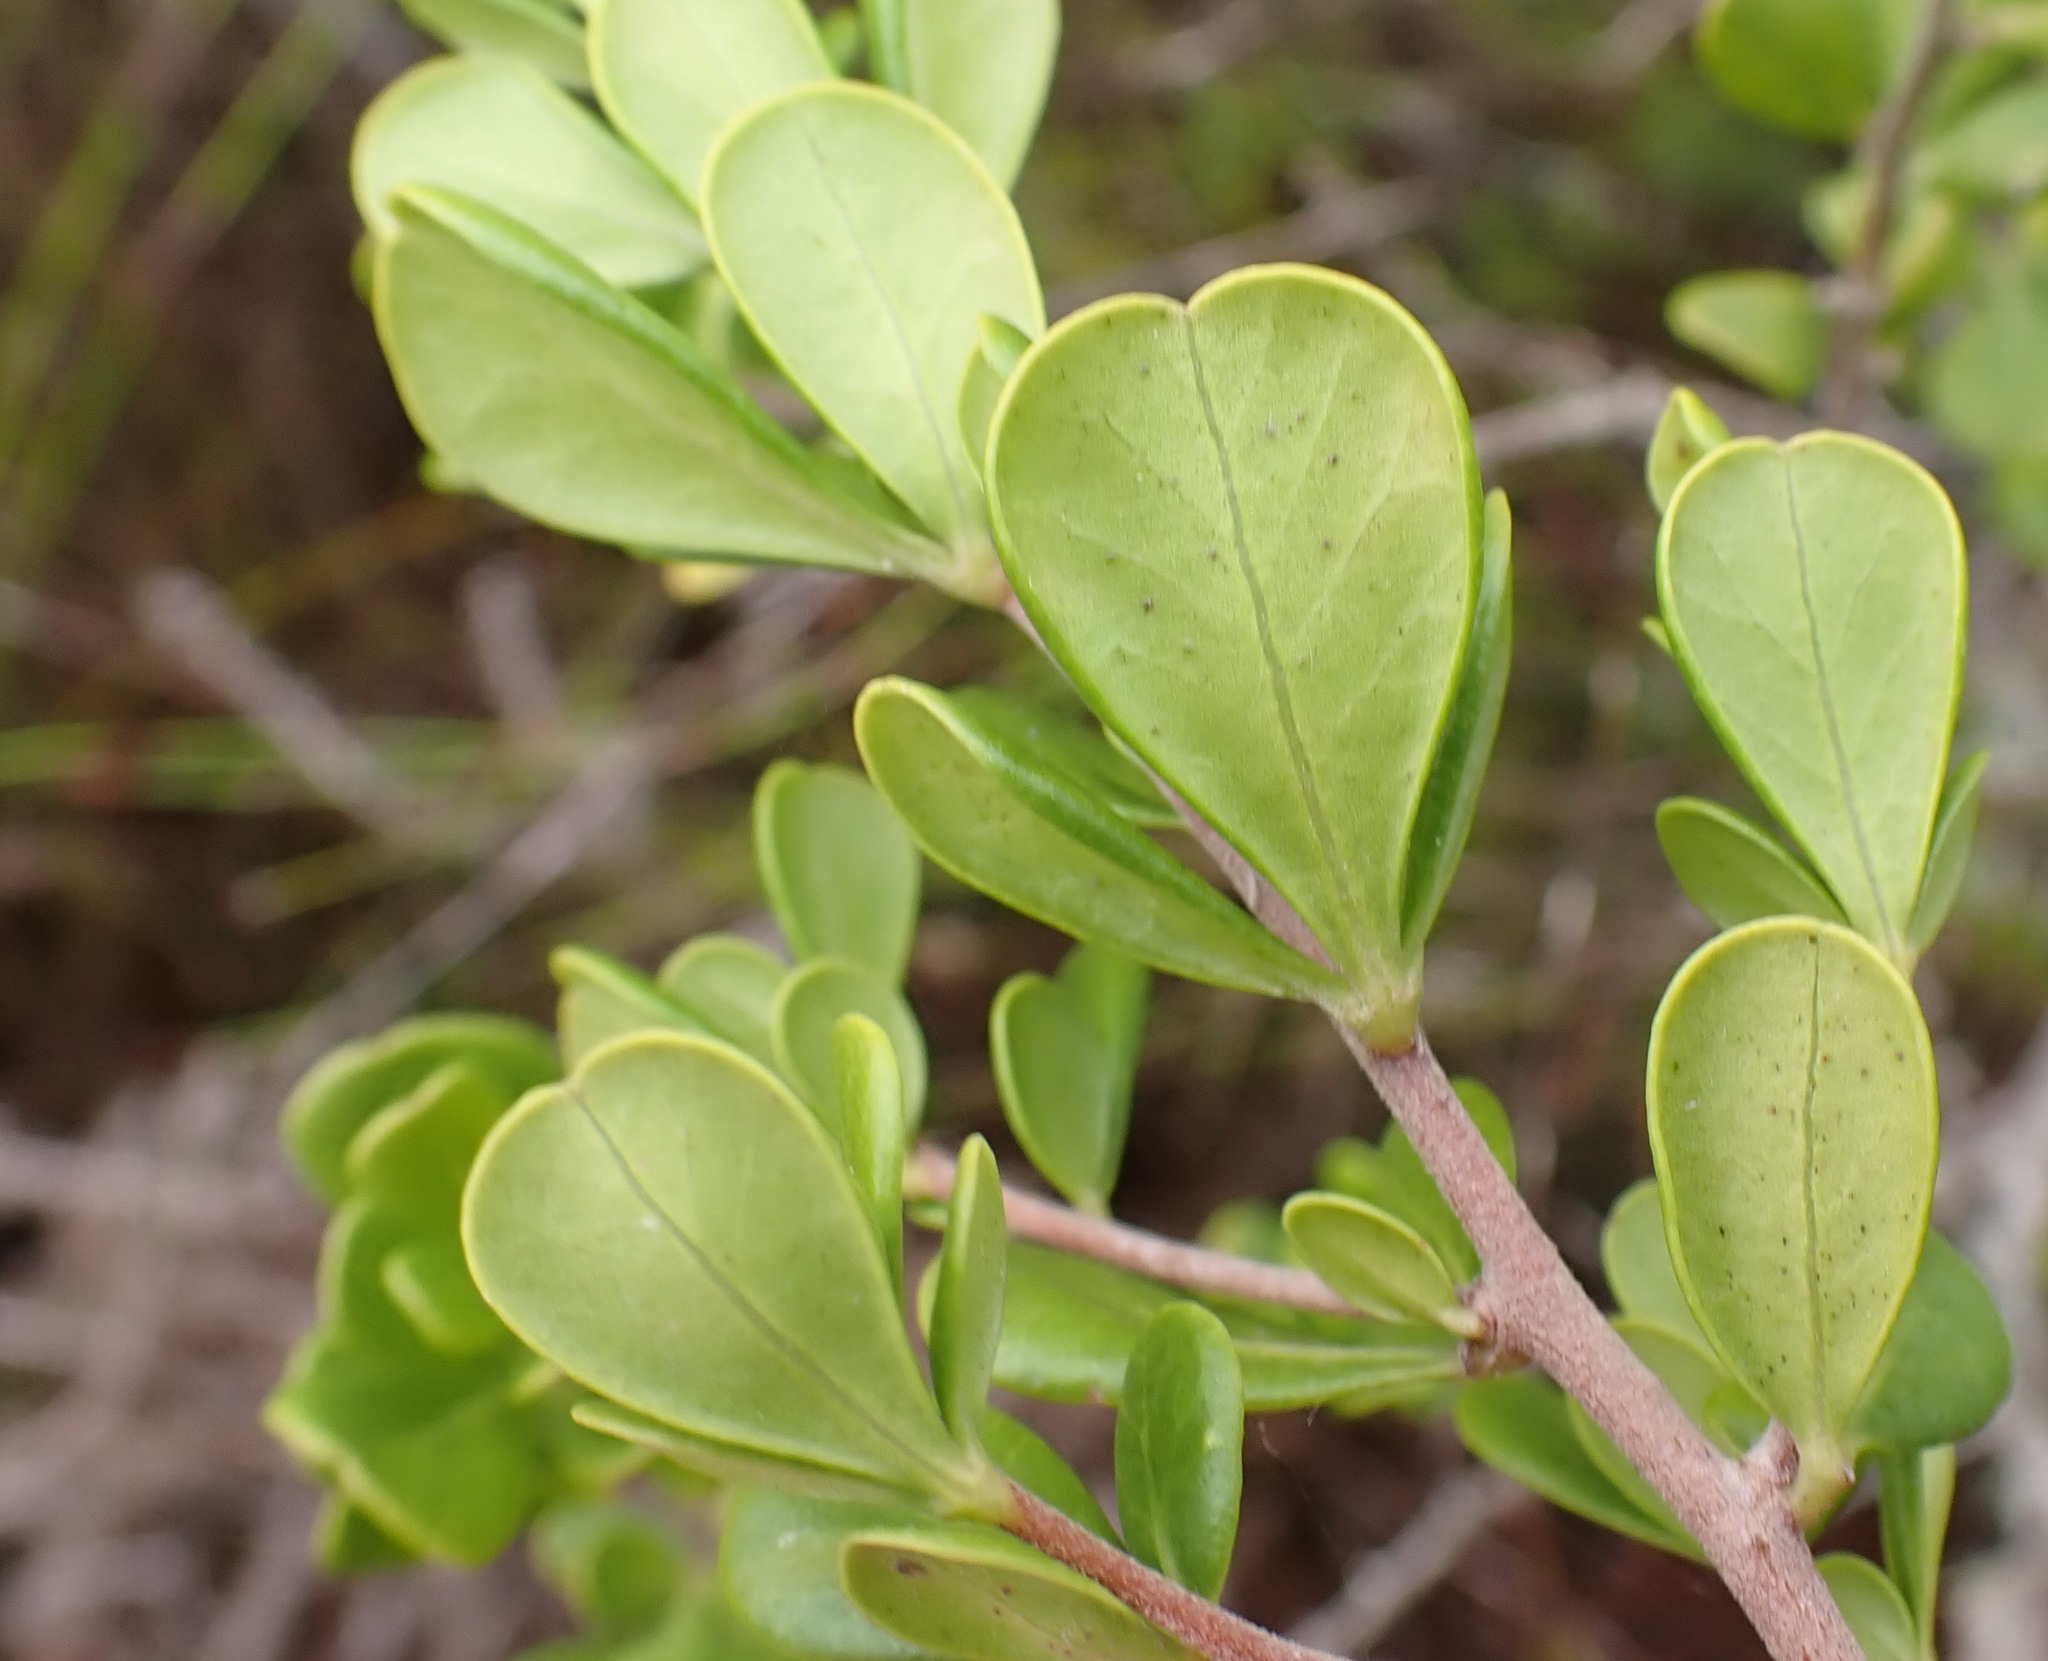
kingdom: Plantae
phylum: Tracheophyta
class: Magnoliopsida
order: Sapindales
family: Anacardiaceae
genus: Searsia
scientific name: Searsia lucida
